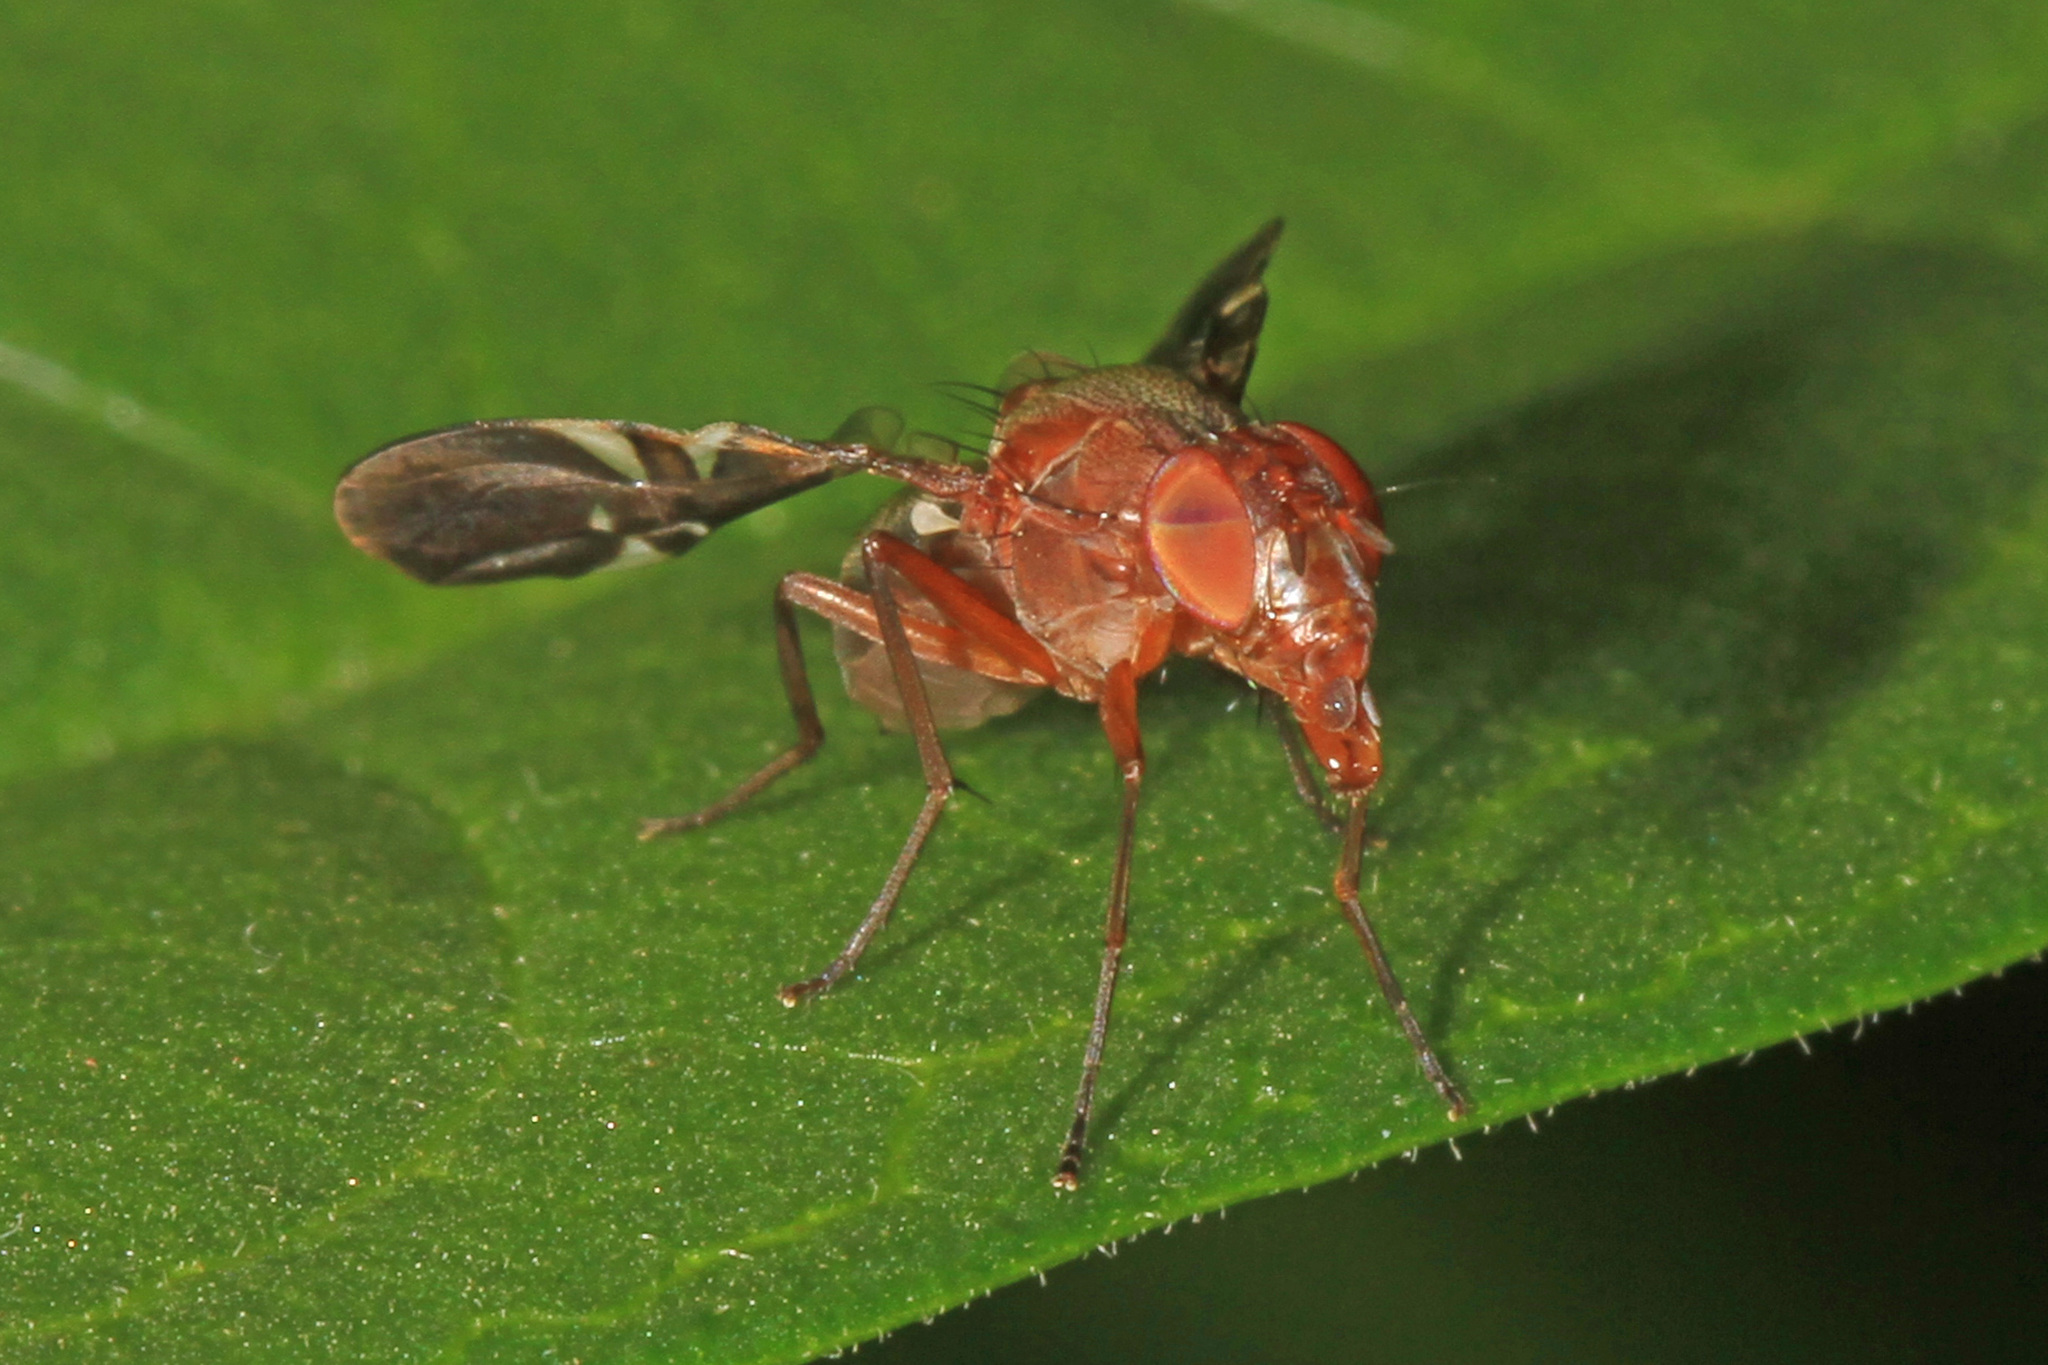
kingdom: Animalia
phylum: Arthropoda
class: Insecta
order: Diptera
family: Ulidiidae
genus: Delphinia
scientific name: Delphinia picta
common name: Common picture-winged fly
